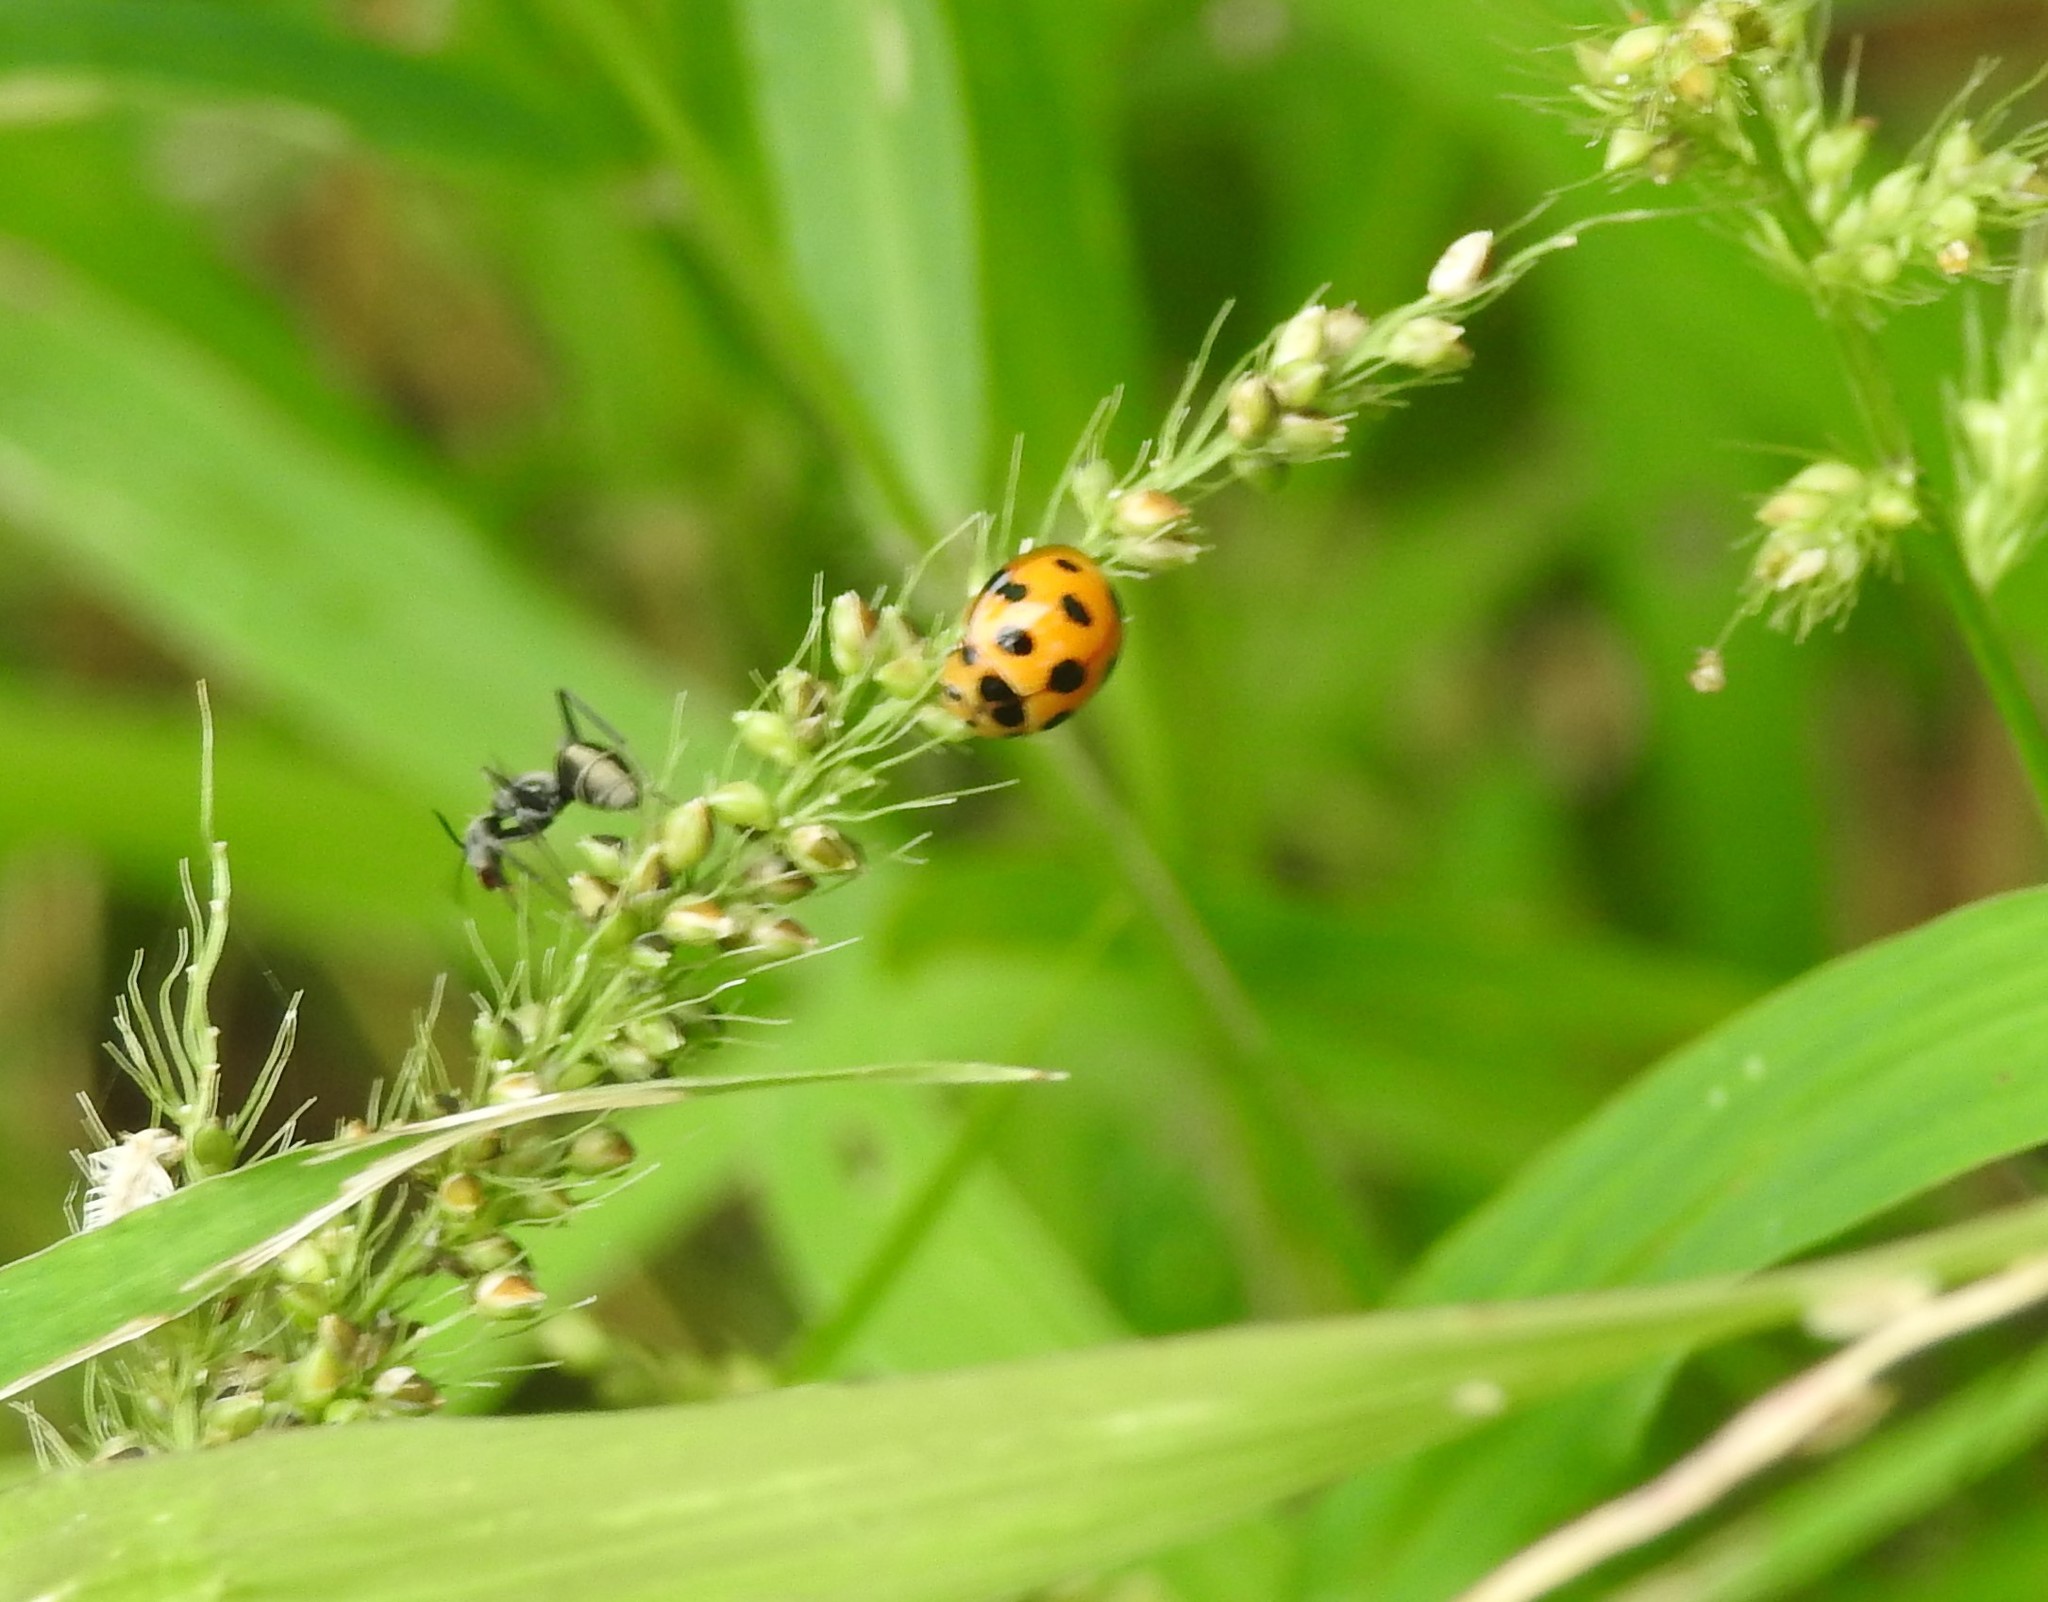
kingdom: Animalia
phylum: Arthropoda
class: Insecta
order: Coleoptera
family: Coccinellidae
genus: Coelophora
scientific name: Coelophora bissellata
